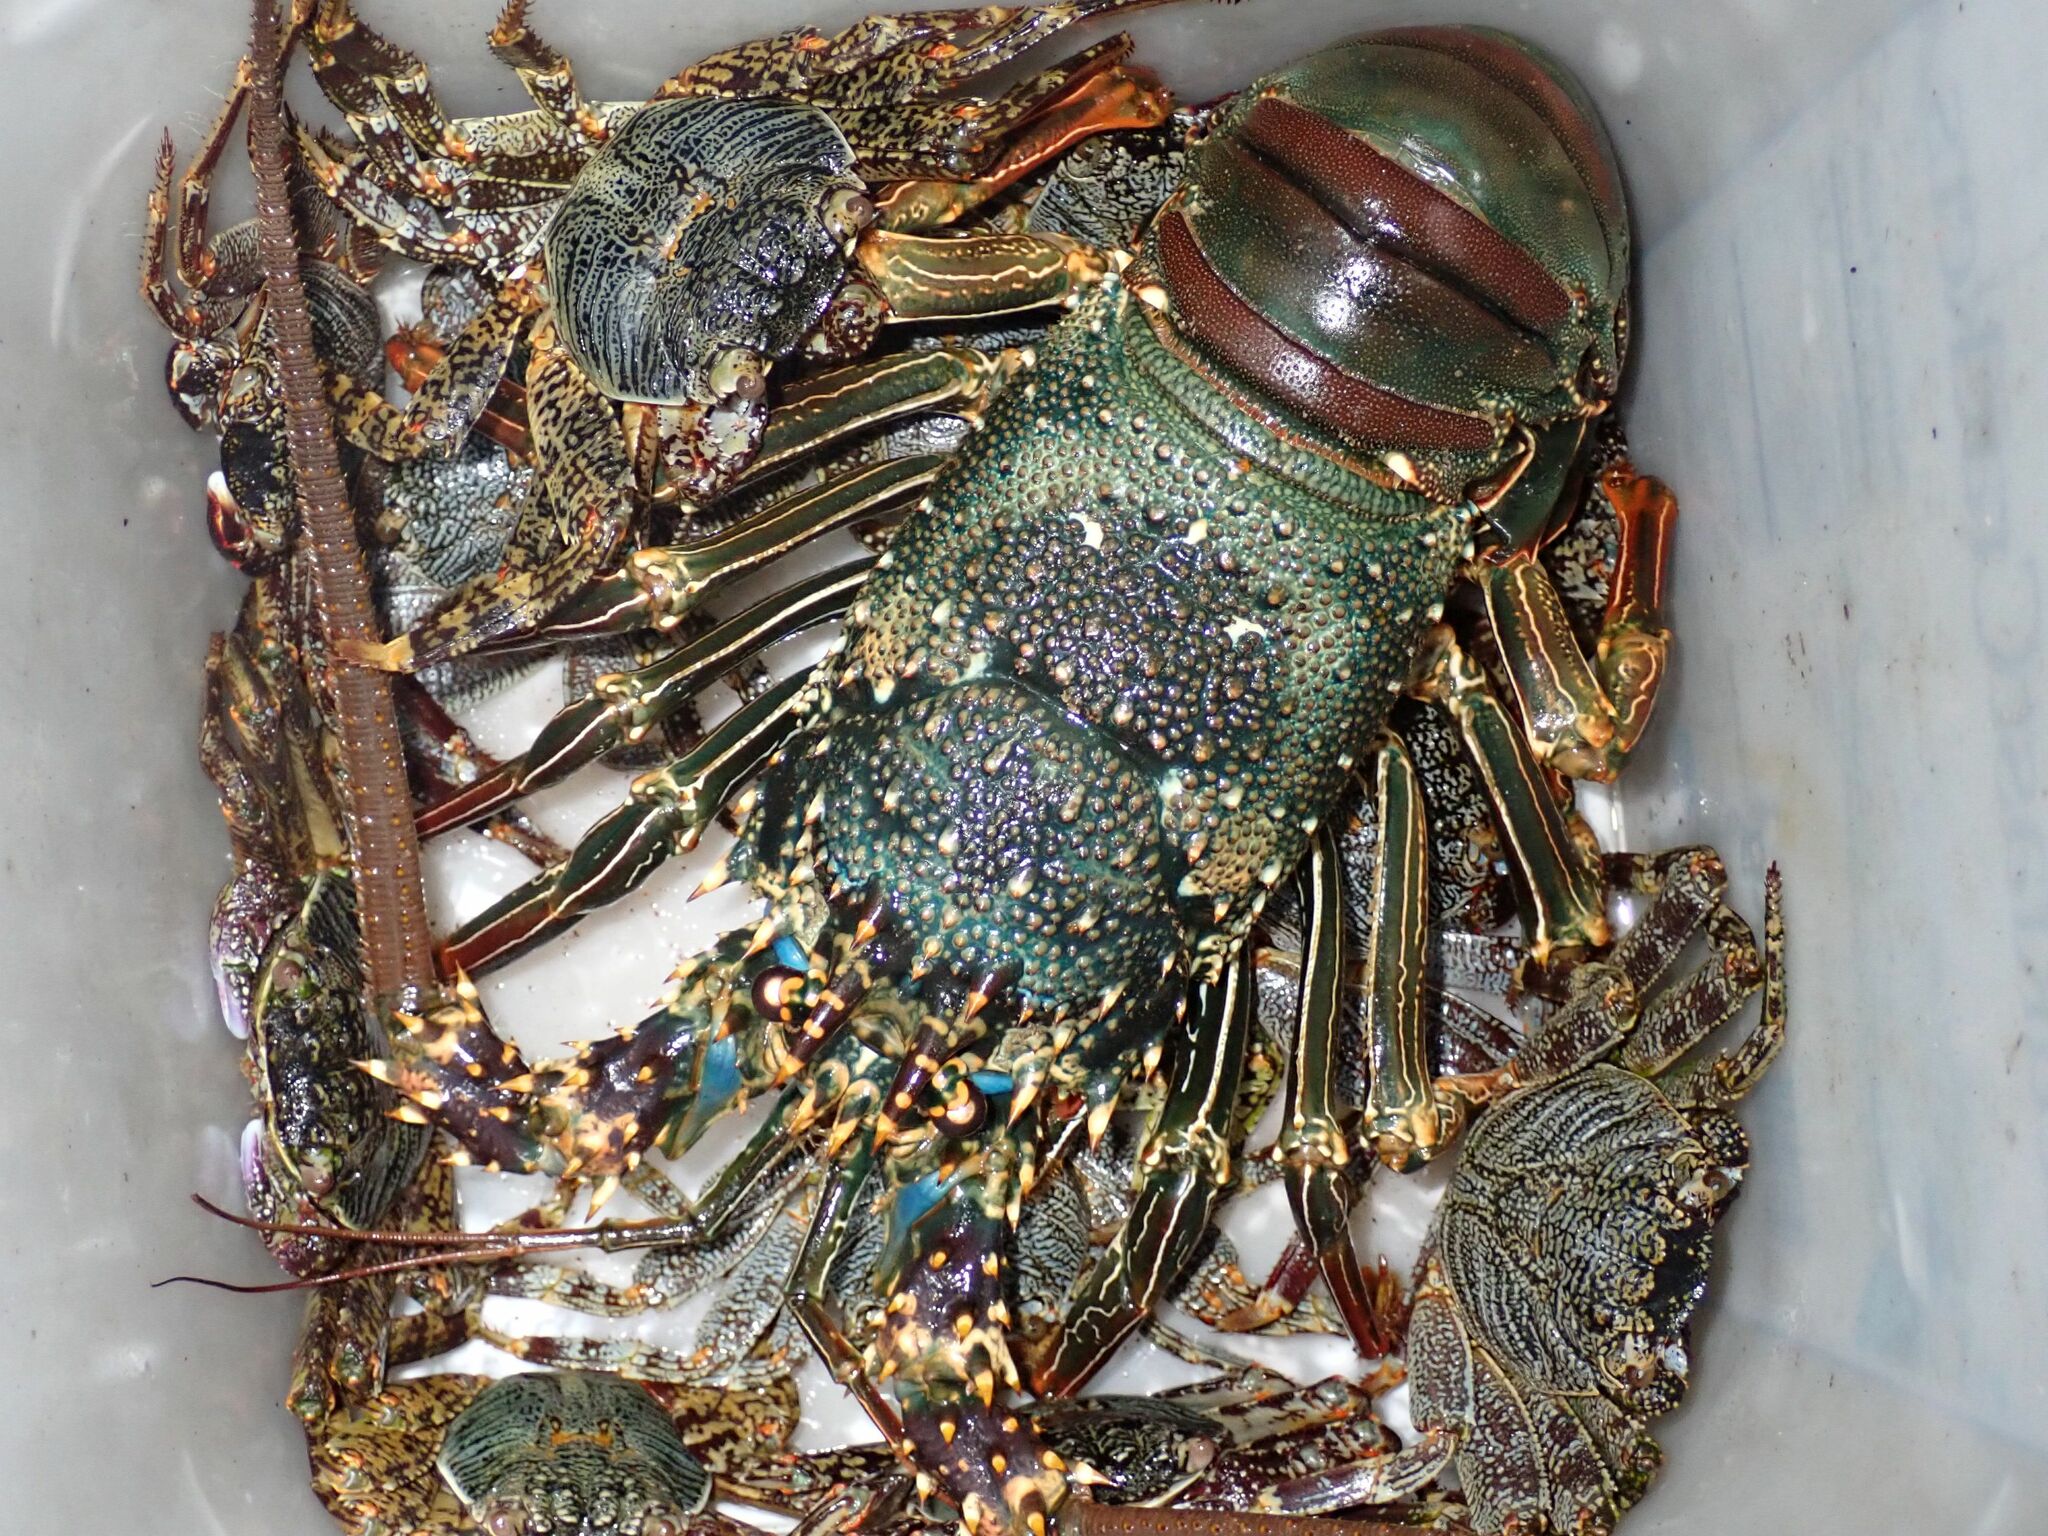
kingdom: Animalia
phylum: Arthropoda
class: Malacostraca
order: Decapoda
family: Palinuridae
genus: Panulirus
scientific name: Panulirus penicillatus
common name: Pronghorn spiny lobster
